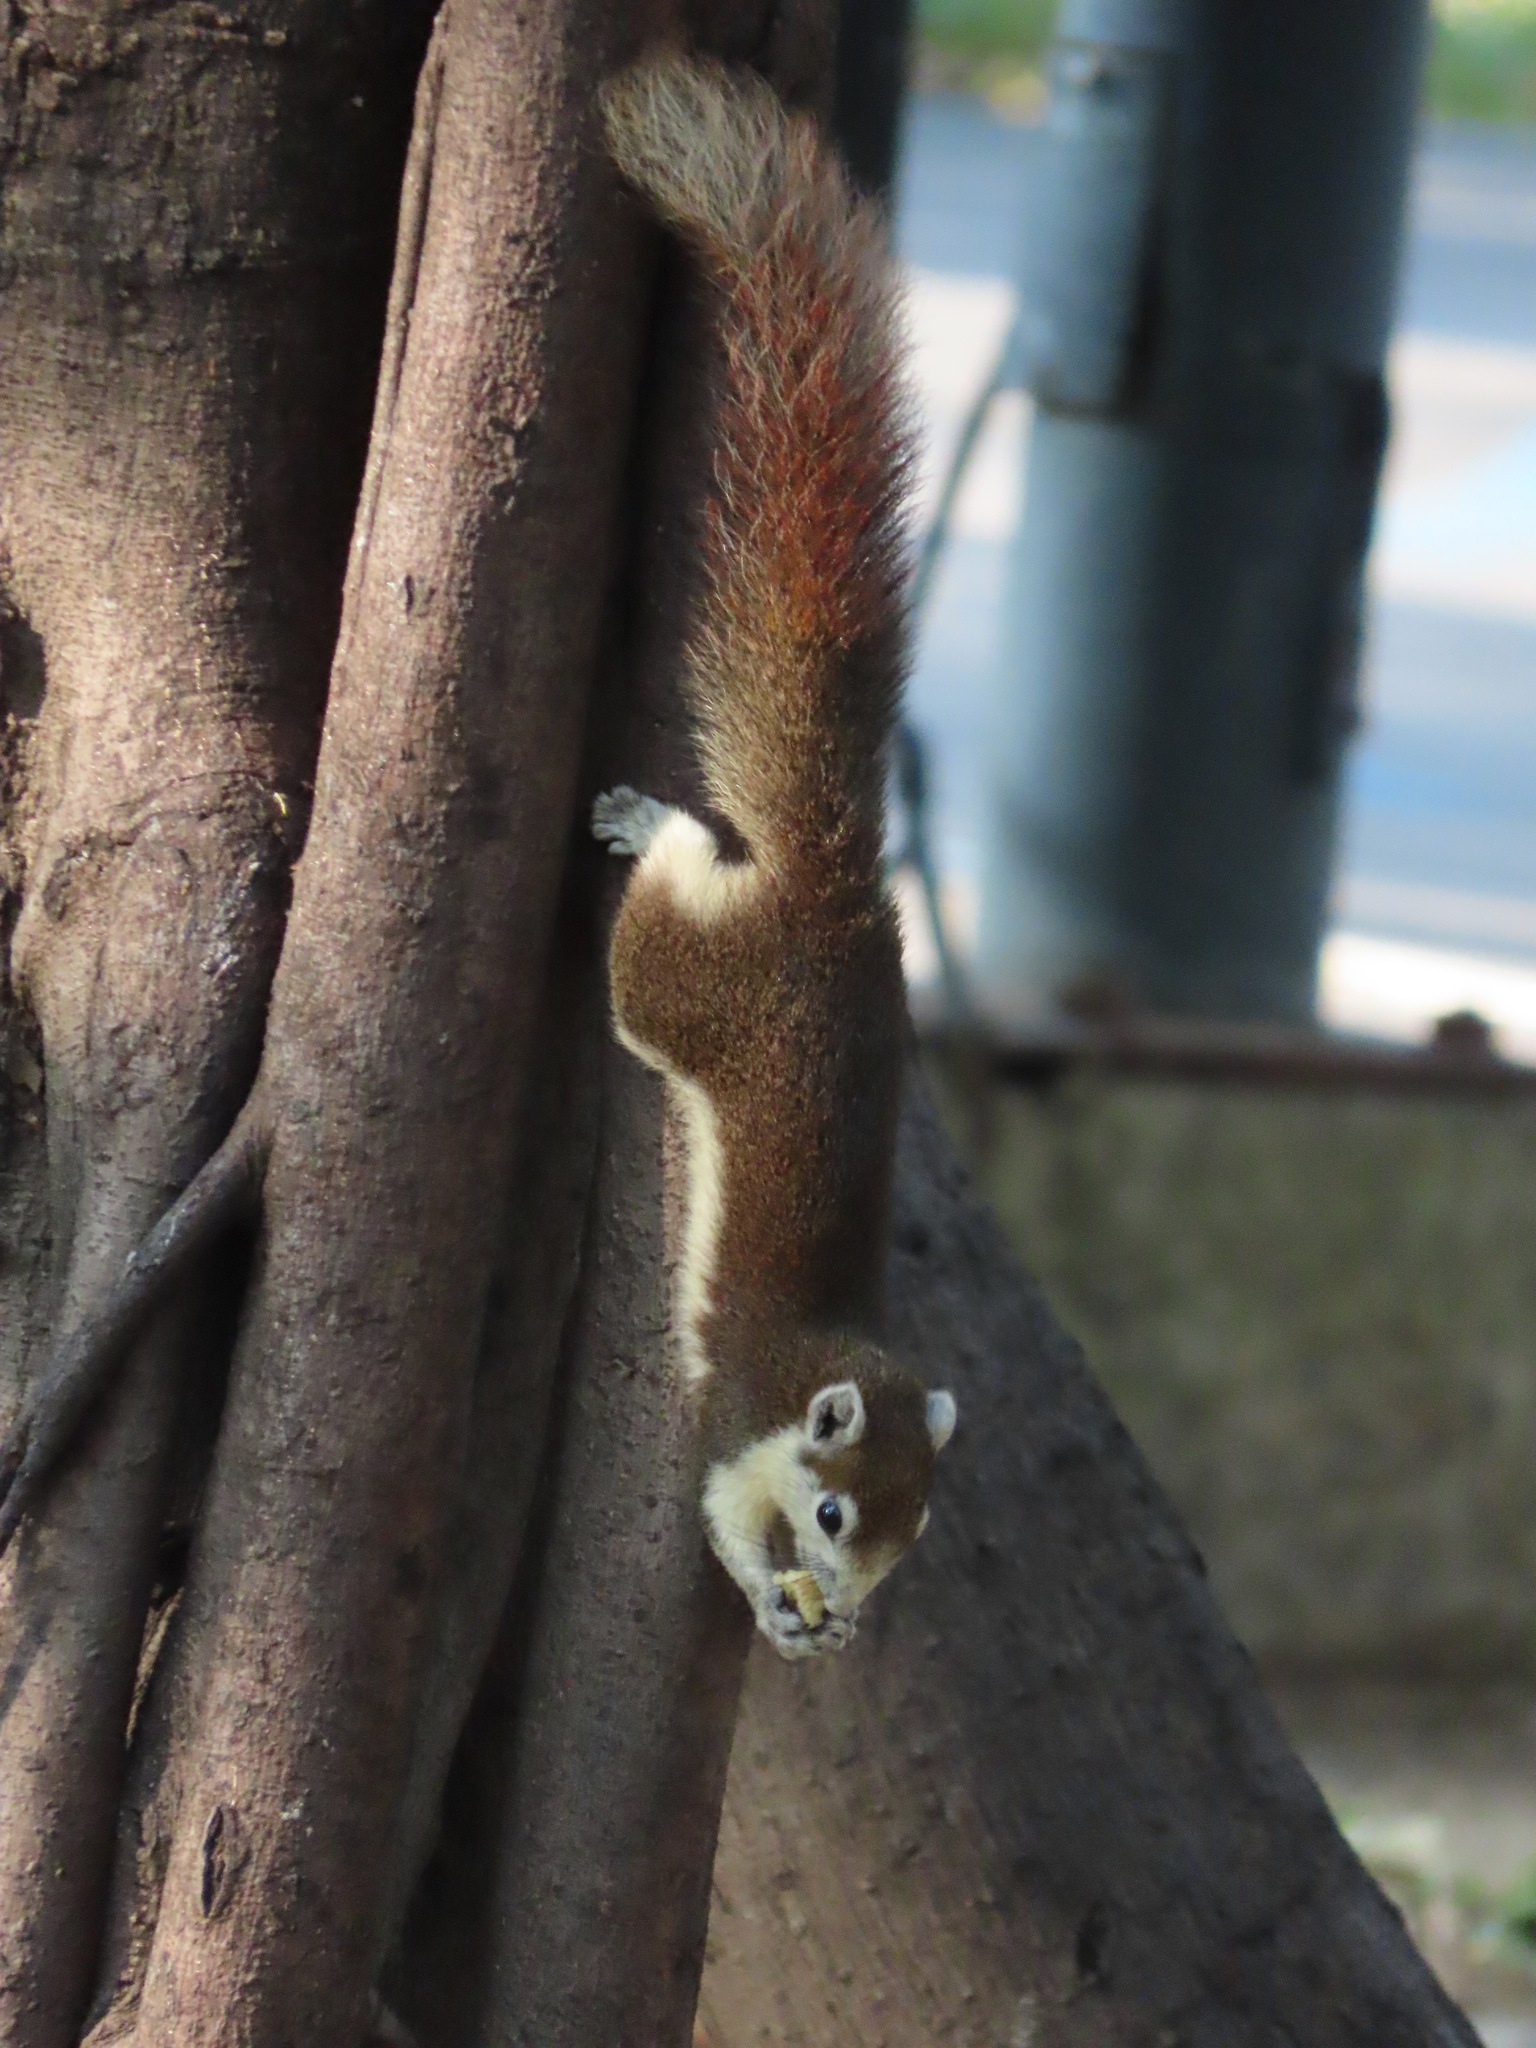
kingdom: Animalia
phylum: Chordata
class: Mammalia
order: Rodentia
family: Sciuridae
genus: Callosciurus
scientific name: Callosciurus finlaysonii
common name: Finlayson's squirrel
